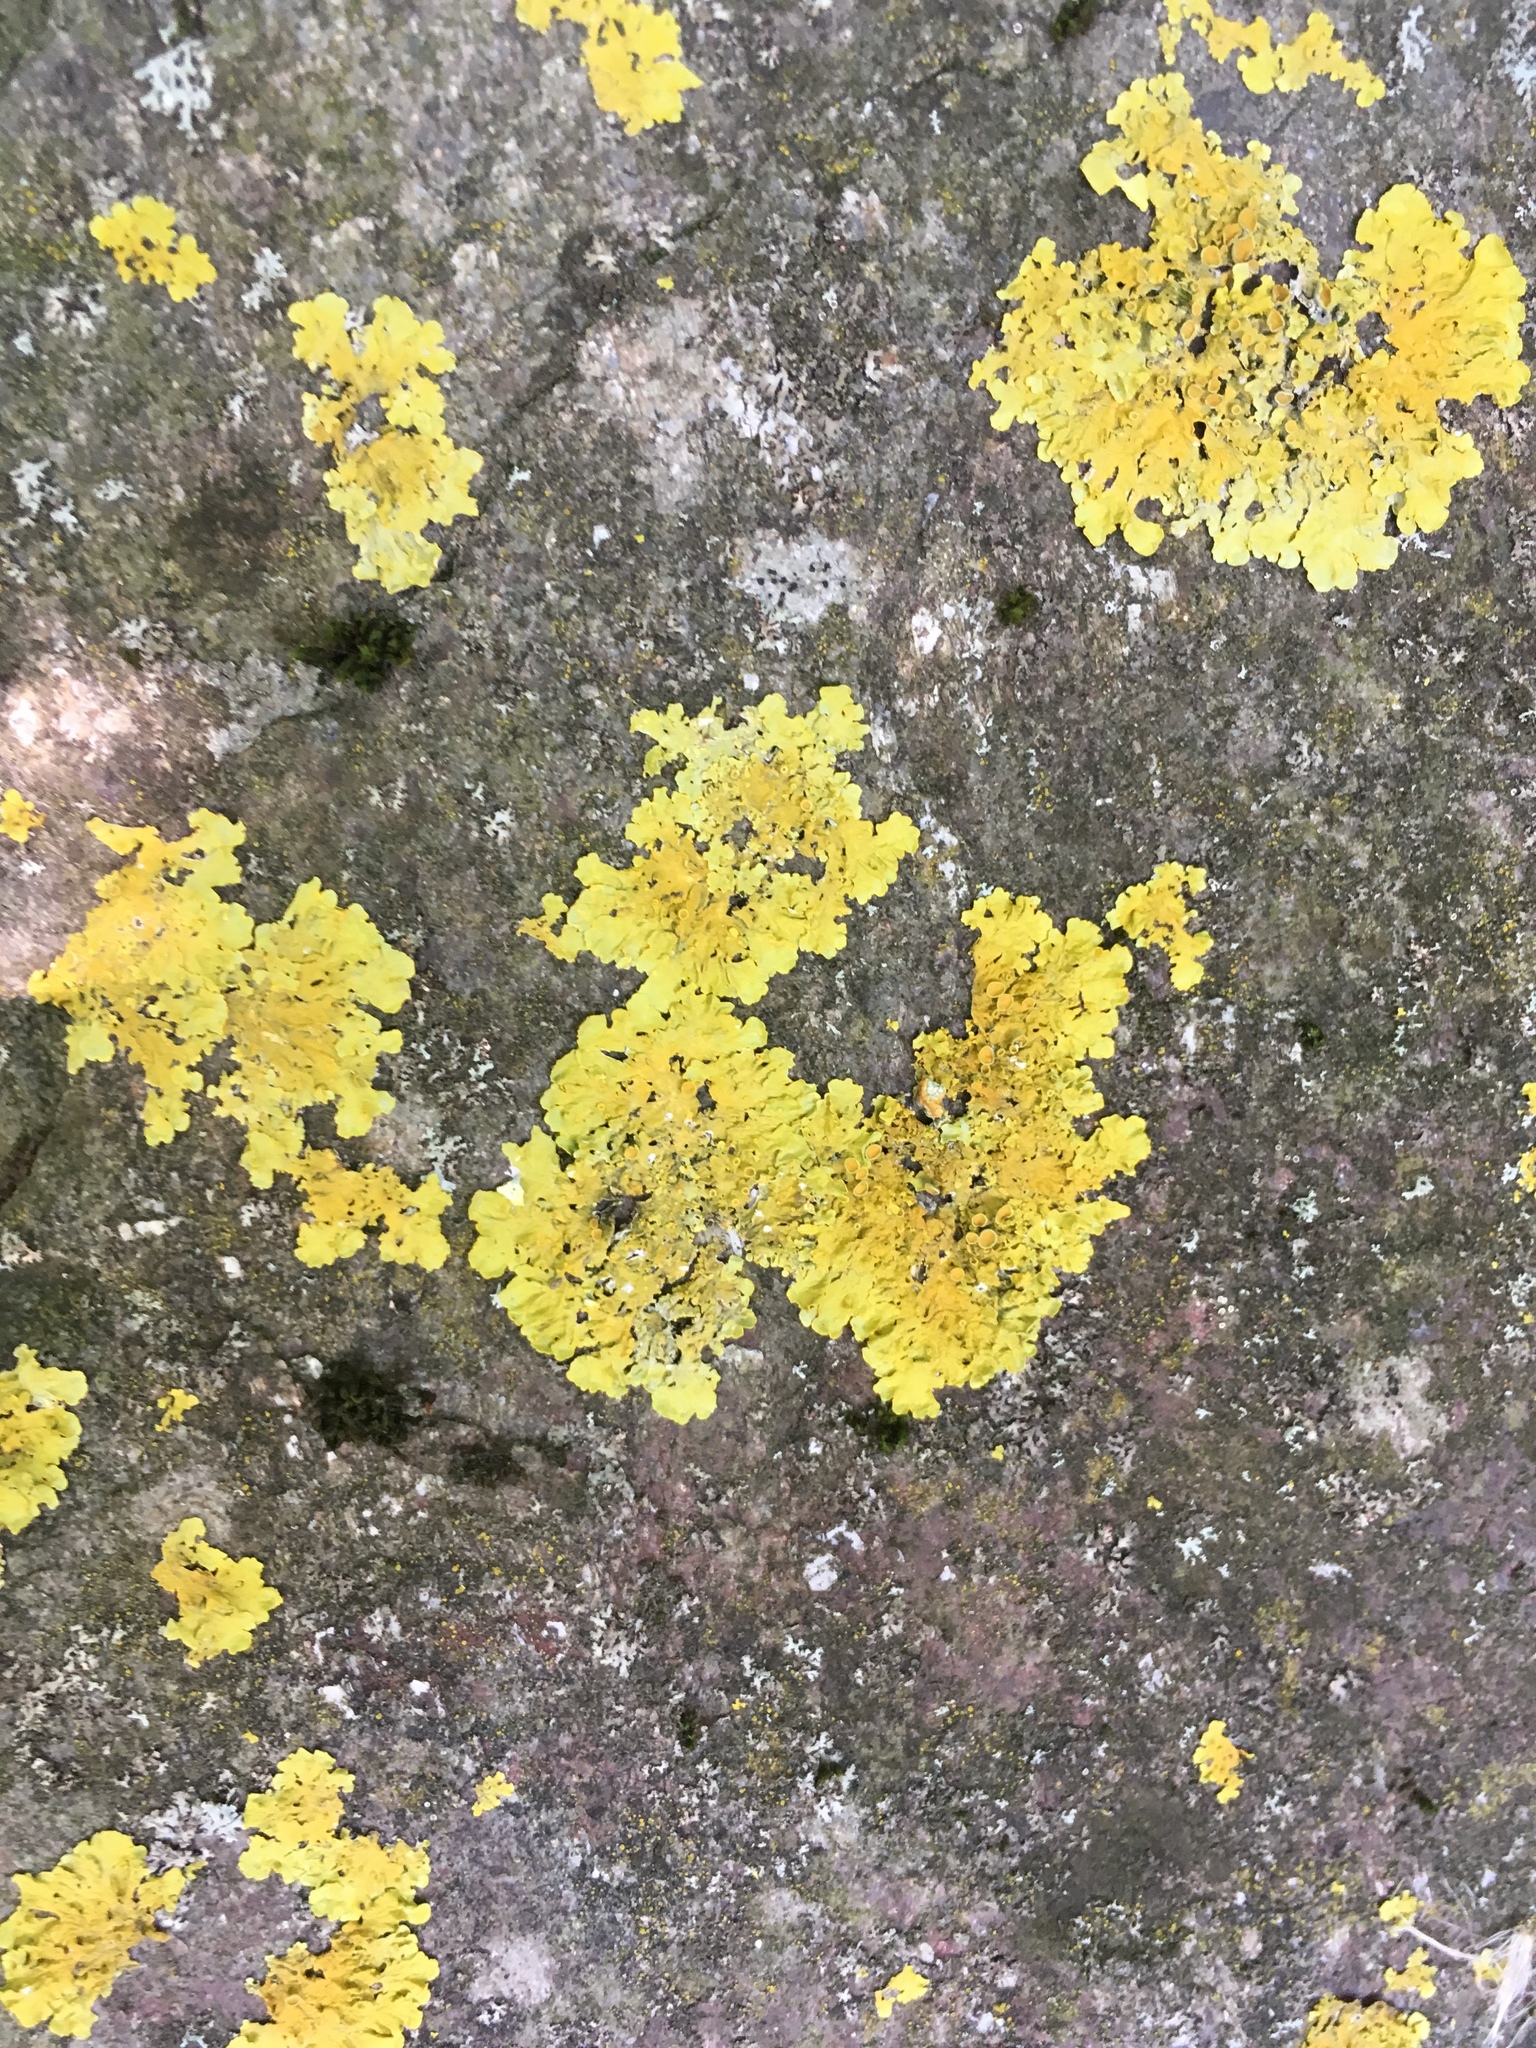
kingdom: Fungi
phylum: Ascomycota
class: Lecanoromycetes
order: Teloschistales
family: Teloschistaceae
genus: Xanthoria
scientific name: Xanthoria parietina
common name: Common orange lichen
